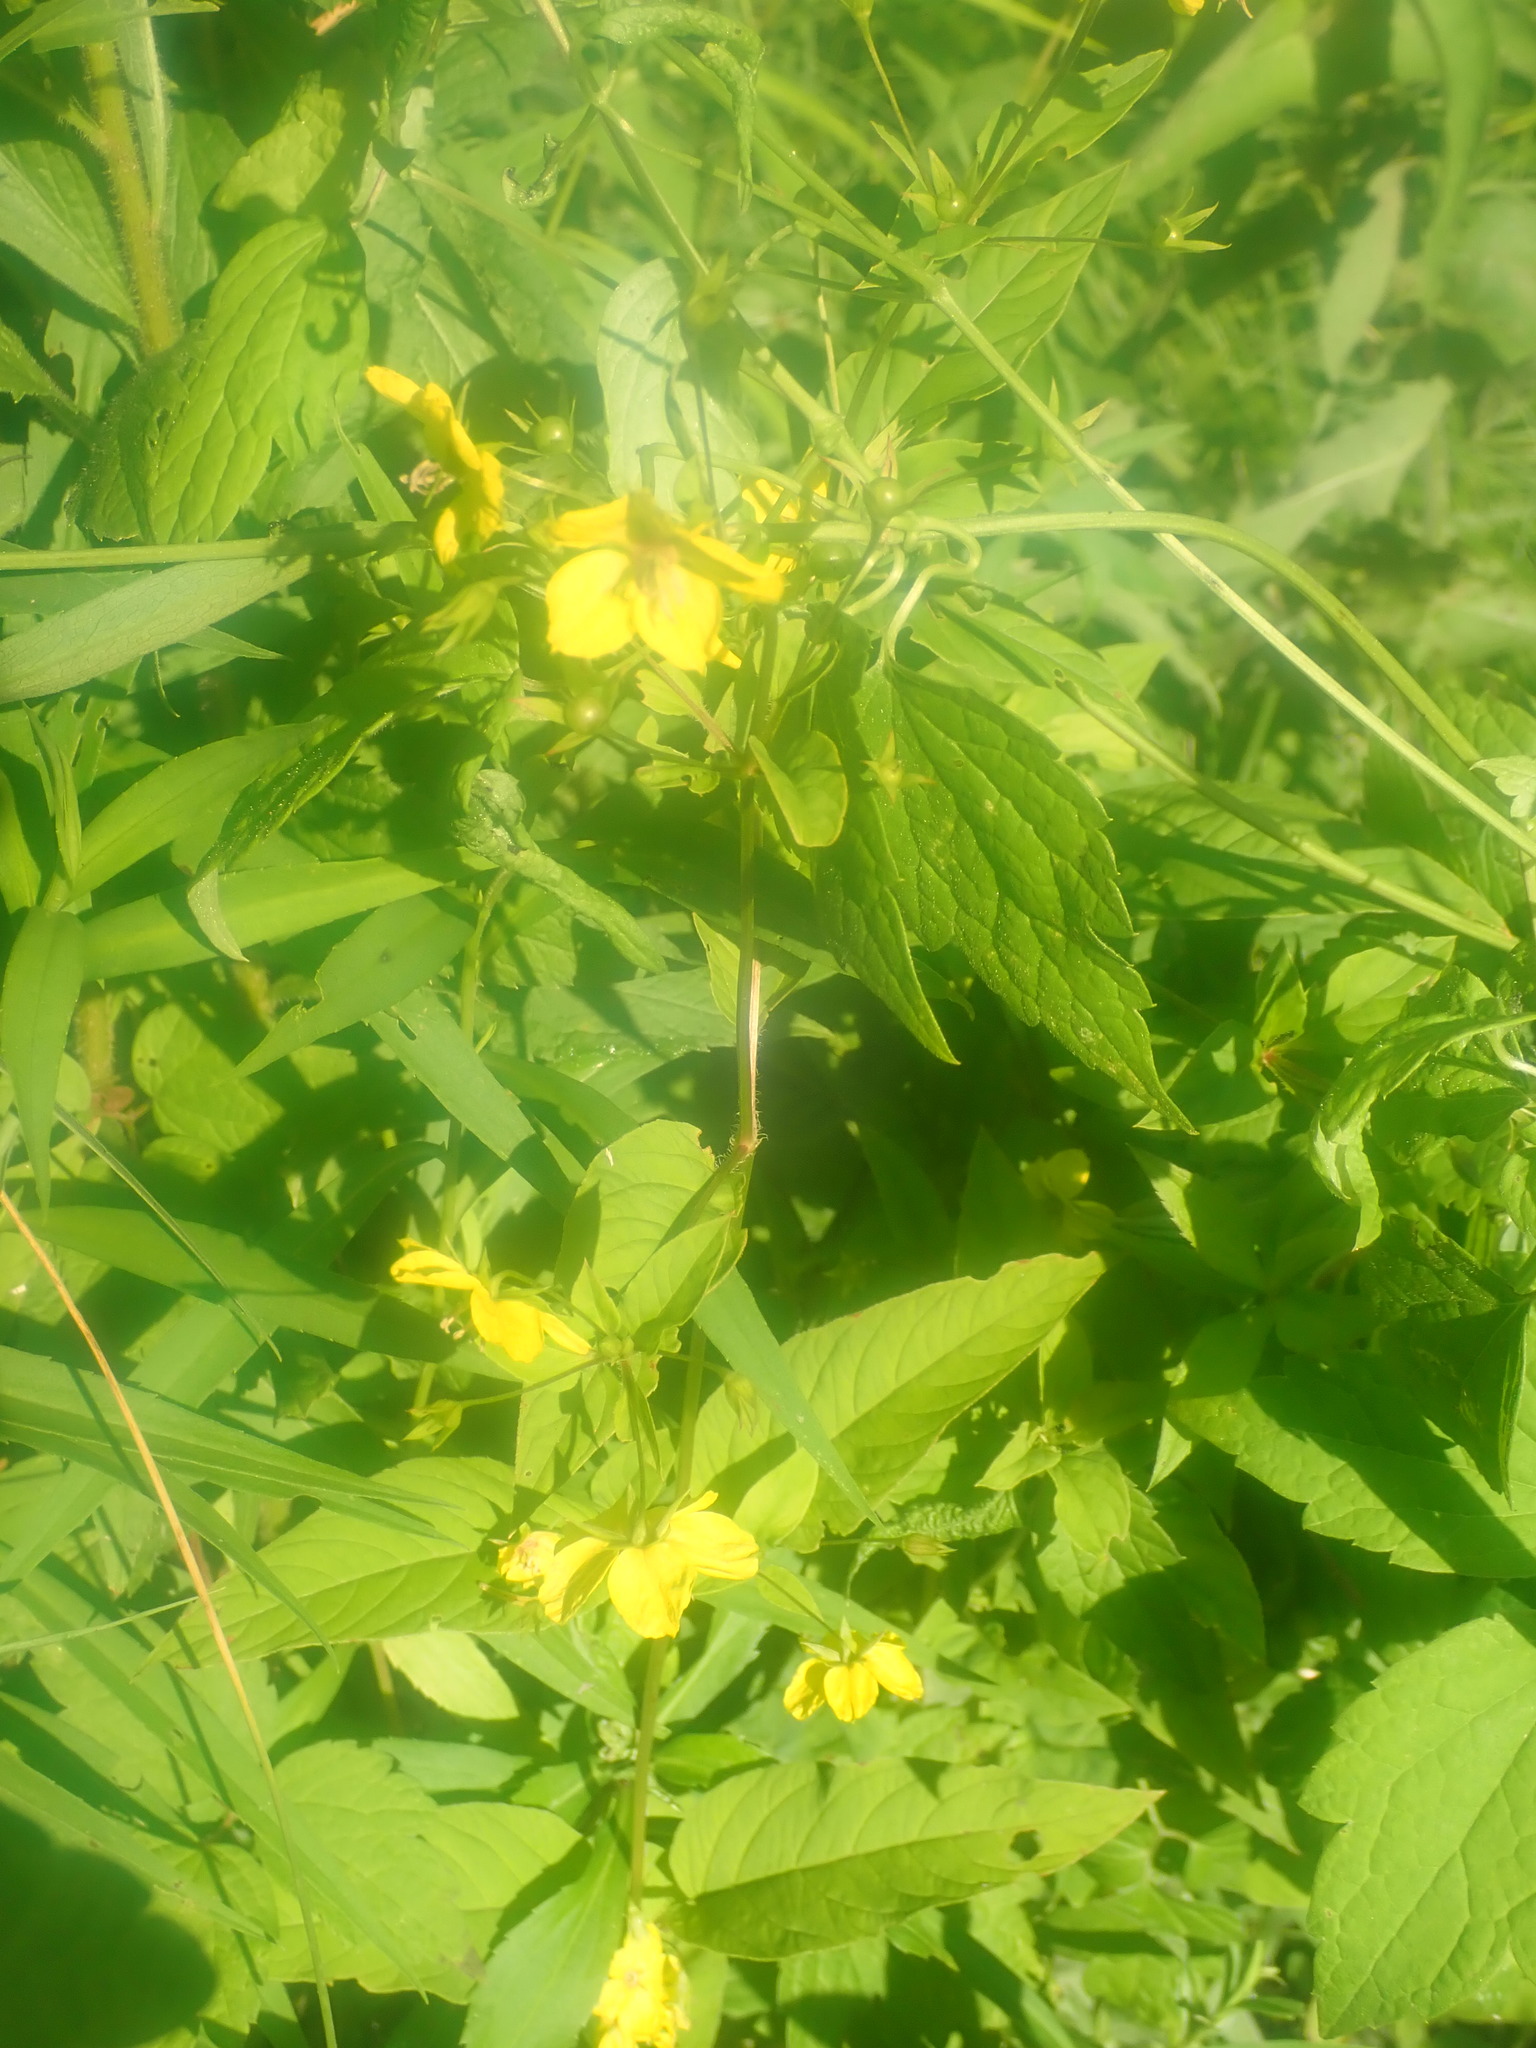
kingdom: Plantae
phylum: Tracheophyta
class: Magnoliopsida
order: Ericales
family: Primulaceae
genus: Lysimachia
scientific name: Lysimachia ciliata
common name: Fringed loosestrife
